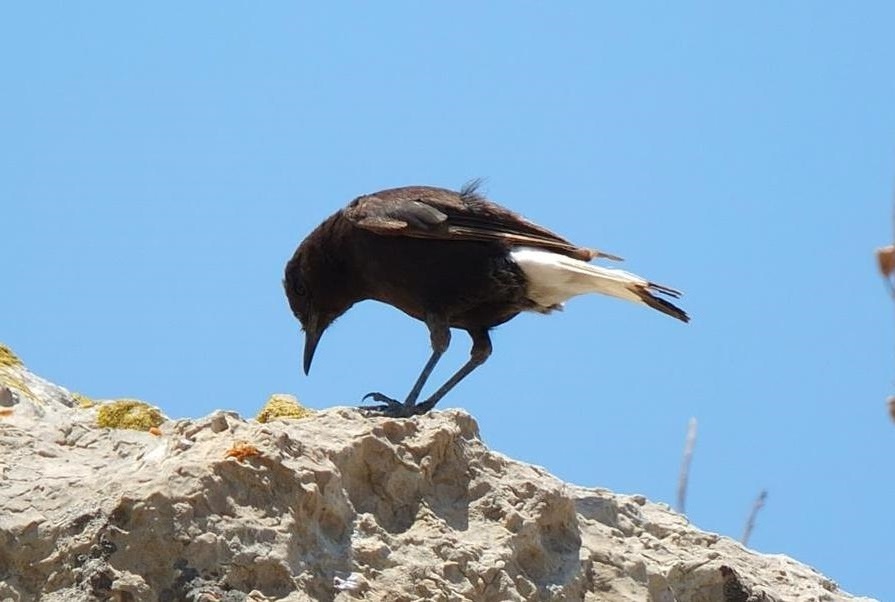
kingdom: Animalia
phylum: Chordata
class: Aves
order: Passeriformes
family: Muscicapidae
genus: Oenanthe
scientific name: Oenanthe leucura
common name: Black wheatear
